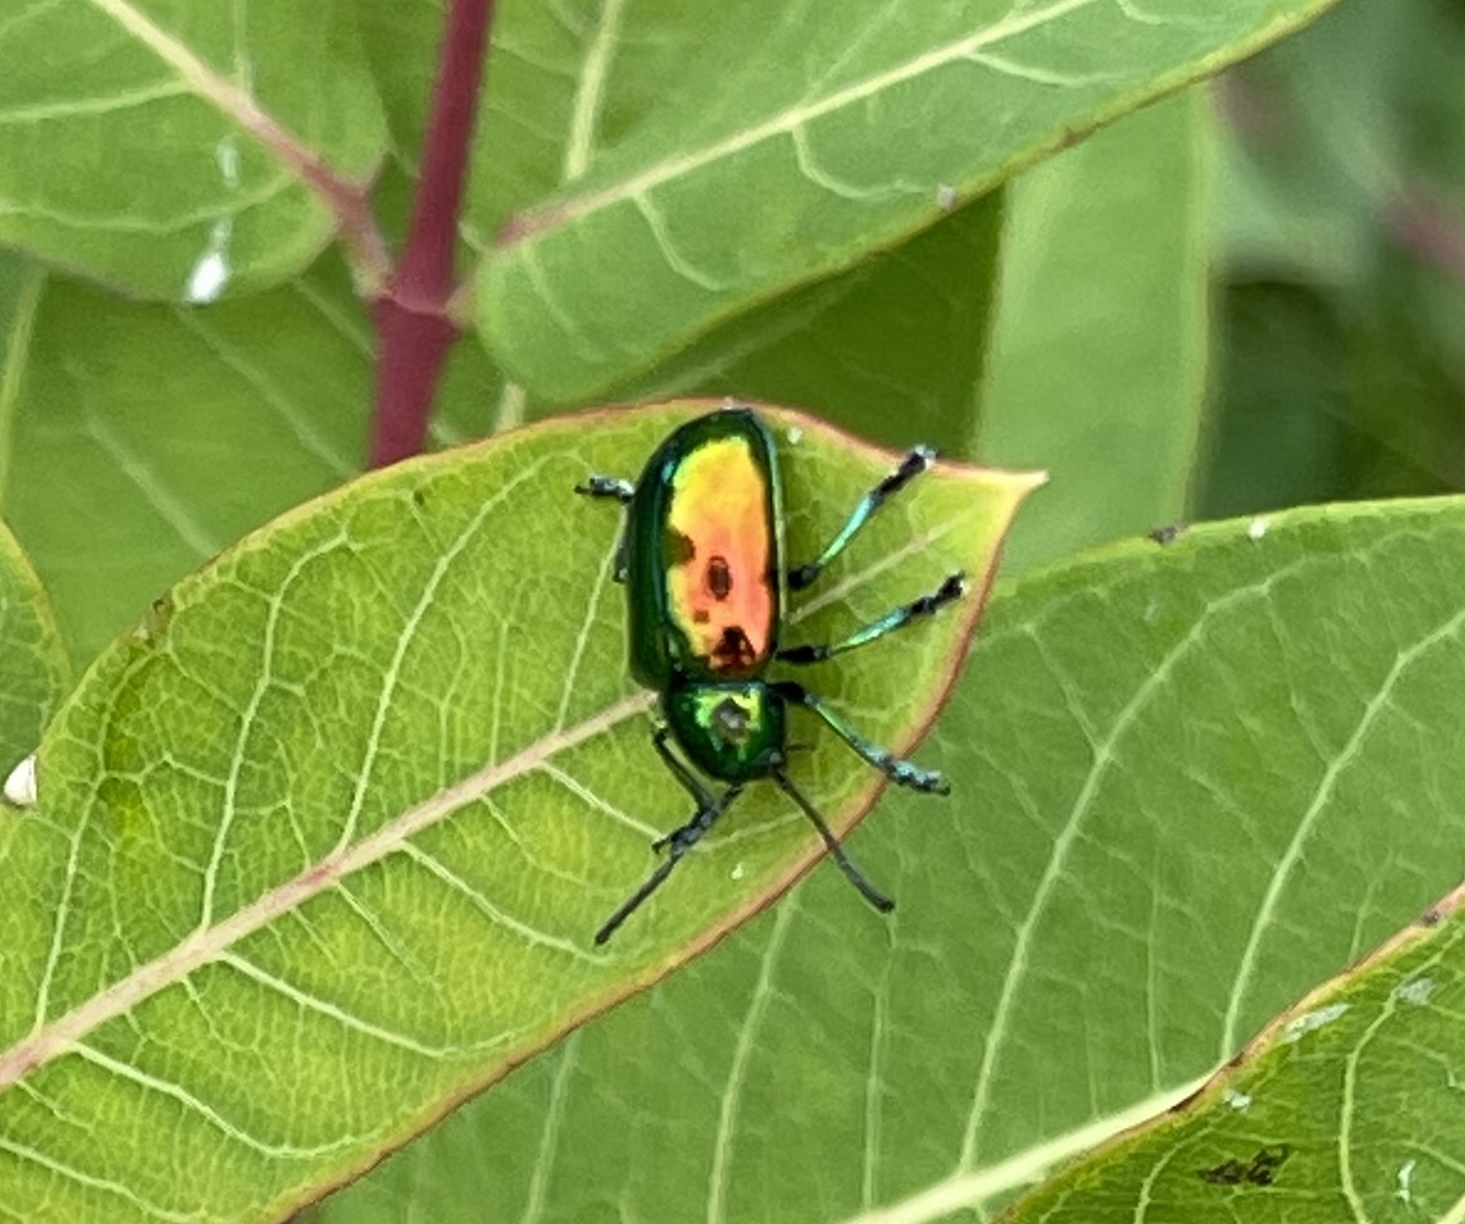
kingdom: Animalia
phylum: Arthropoda
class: Insecta
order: Coleoptera
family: Chrysomelidae
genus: Chrysochus
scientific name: Chrysochus auratus
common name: Dogbane leaf beetle
